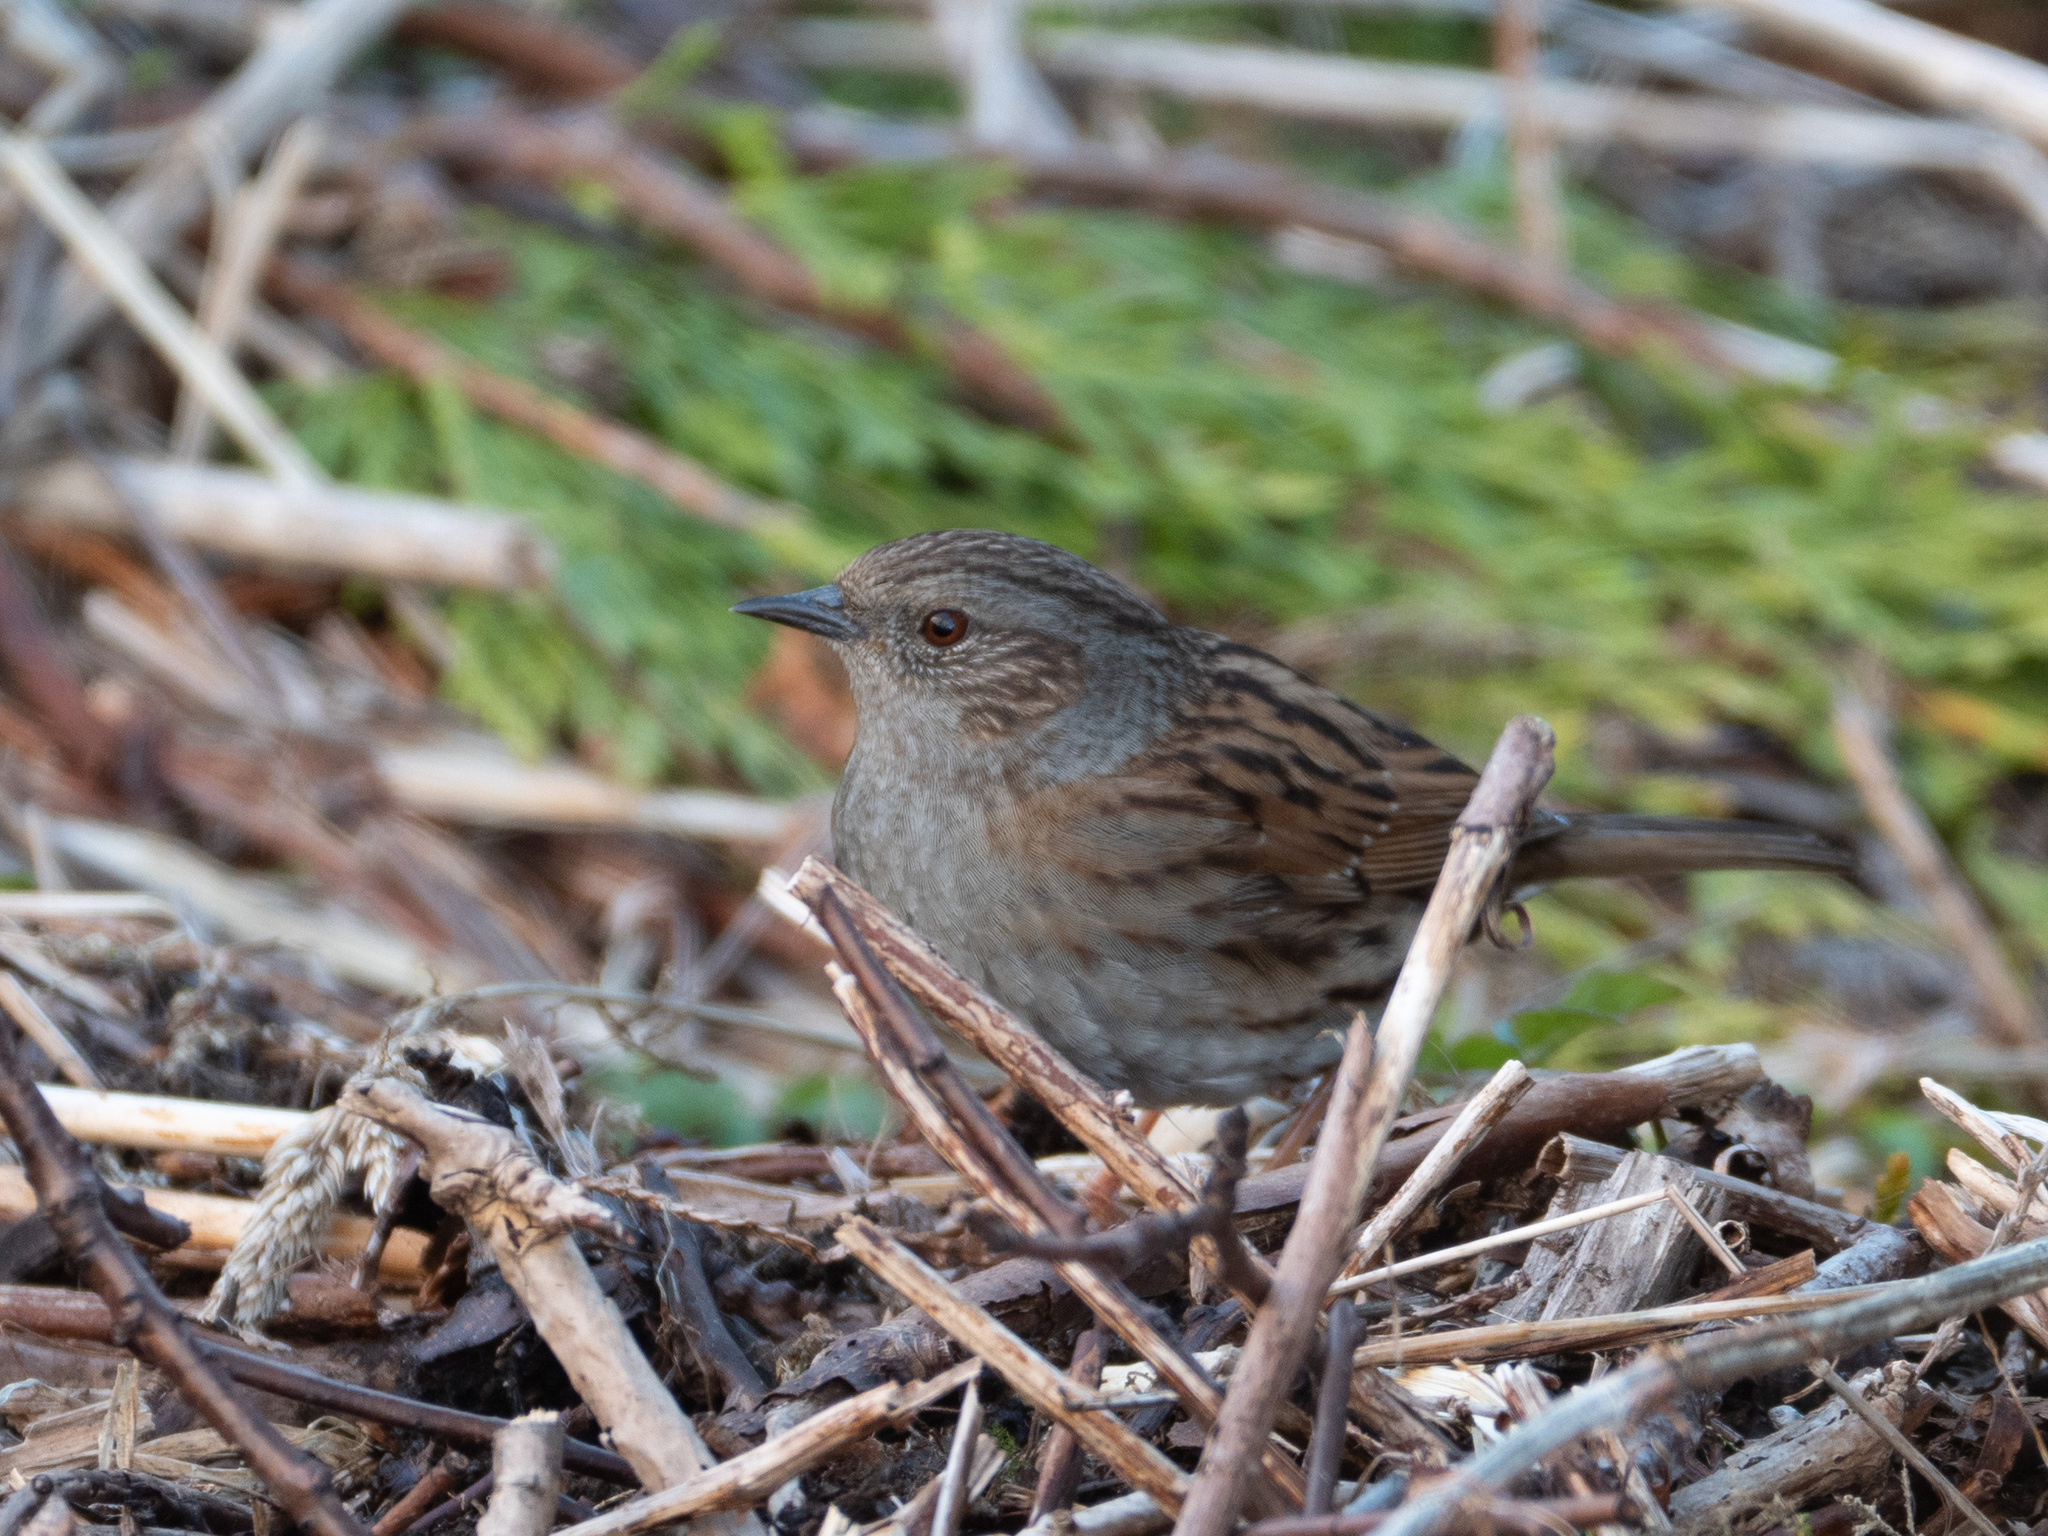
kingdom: Animalia
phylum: Chordata
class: Aves
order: Passeriformes
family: Prunellidae
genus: Prunella
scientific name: Prunella modularis
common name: Dunnock
